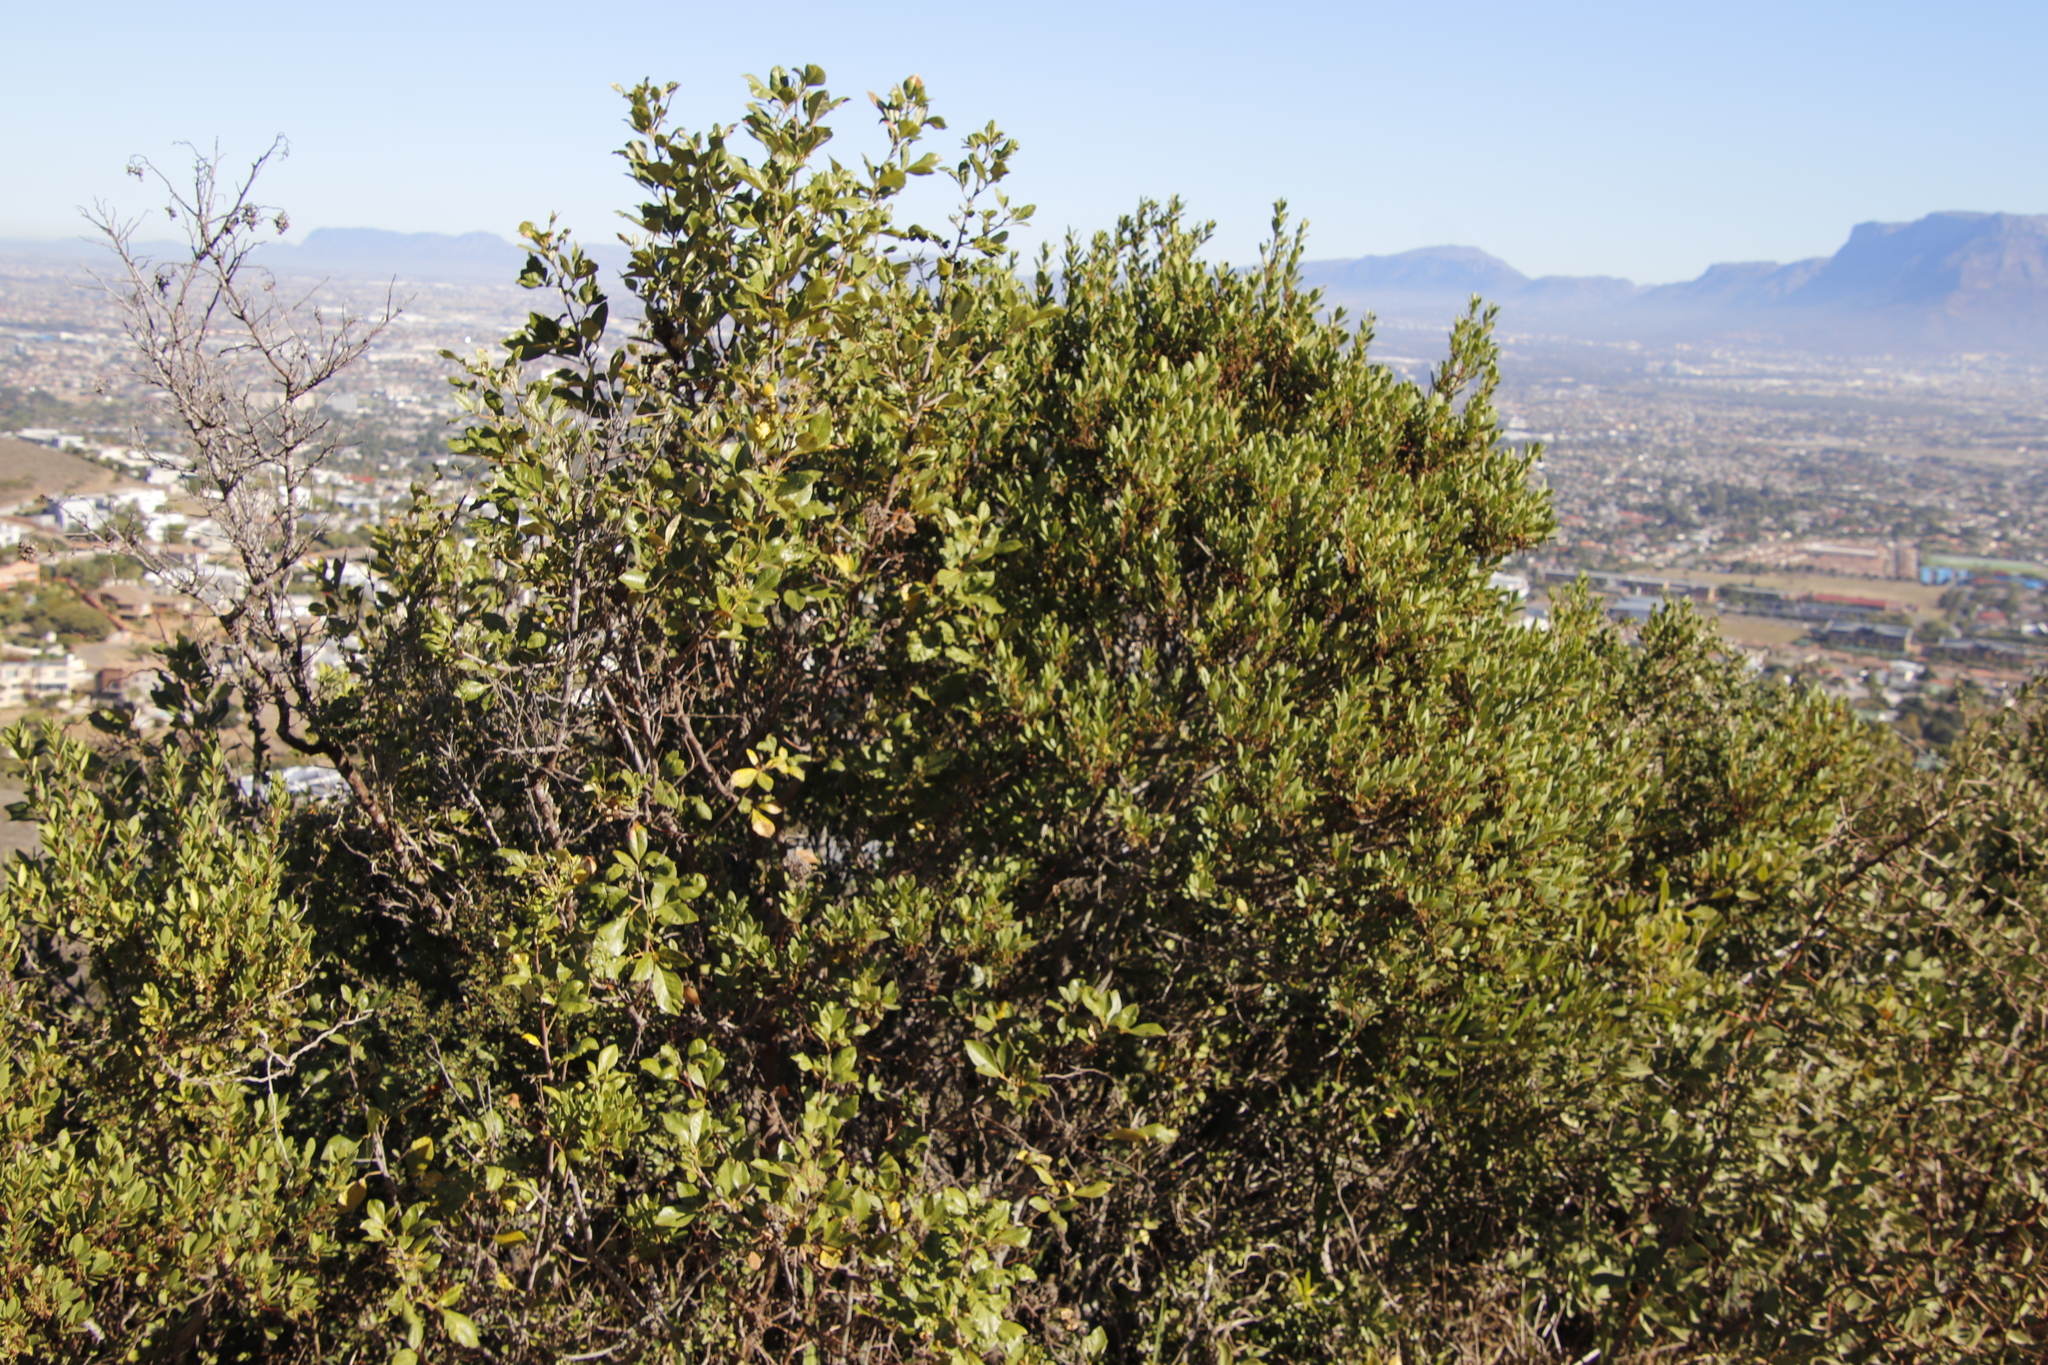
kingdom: Plantae
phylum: Tracheophyta
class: Magnoliopsida
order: Sapindales
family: Anacardiaceae
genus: Searsia
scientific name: Searsia tomentosa
